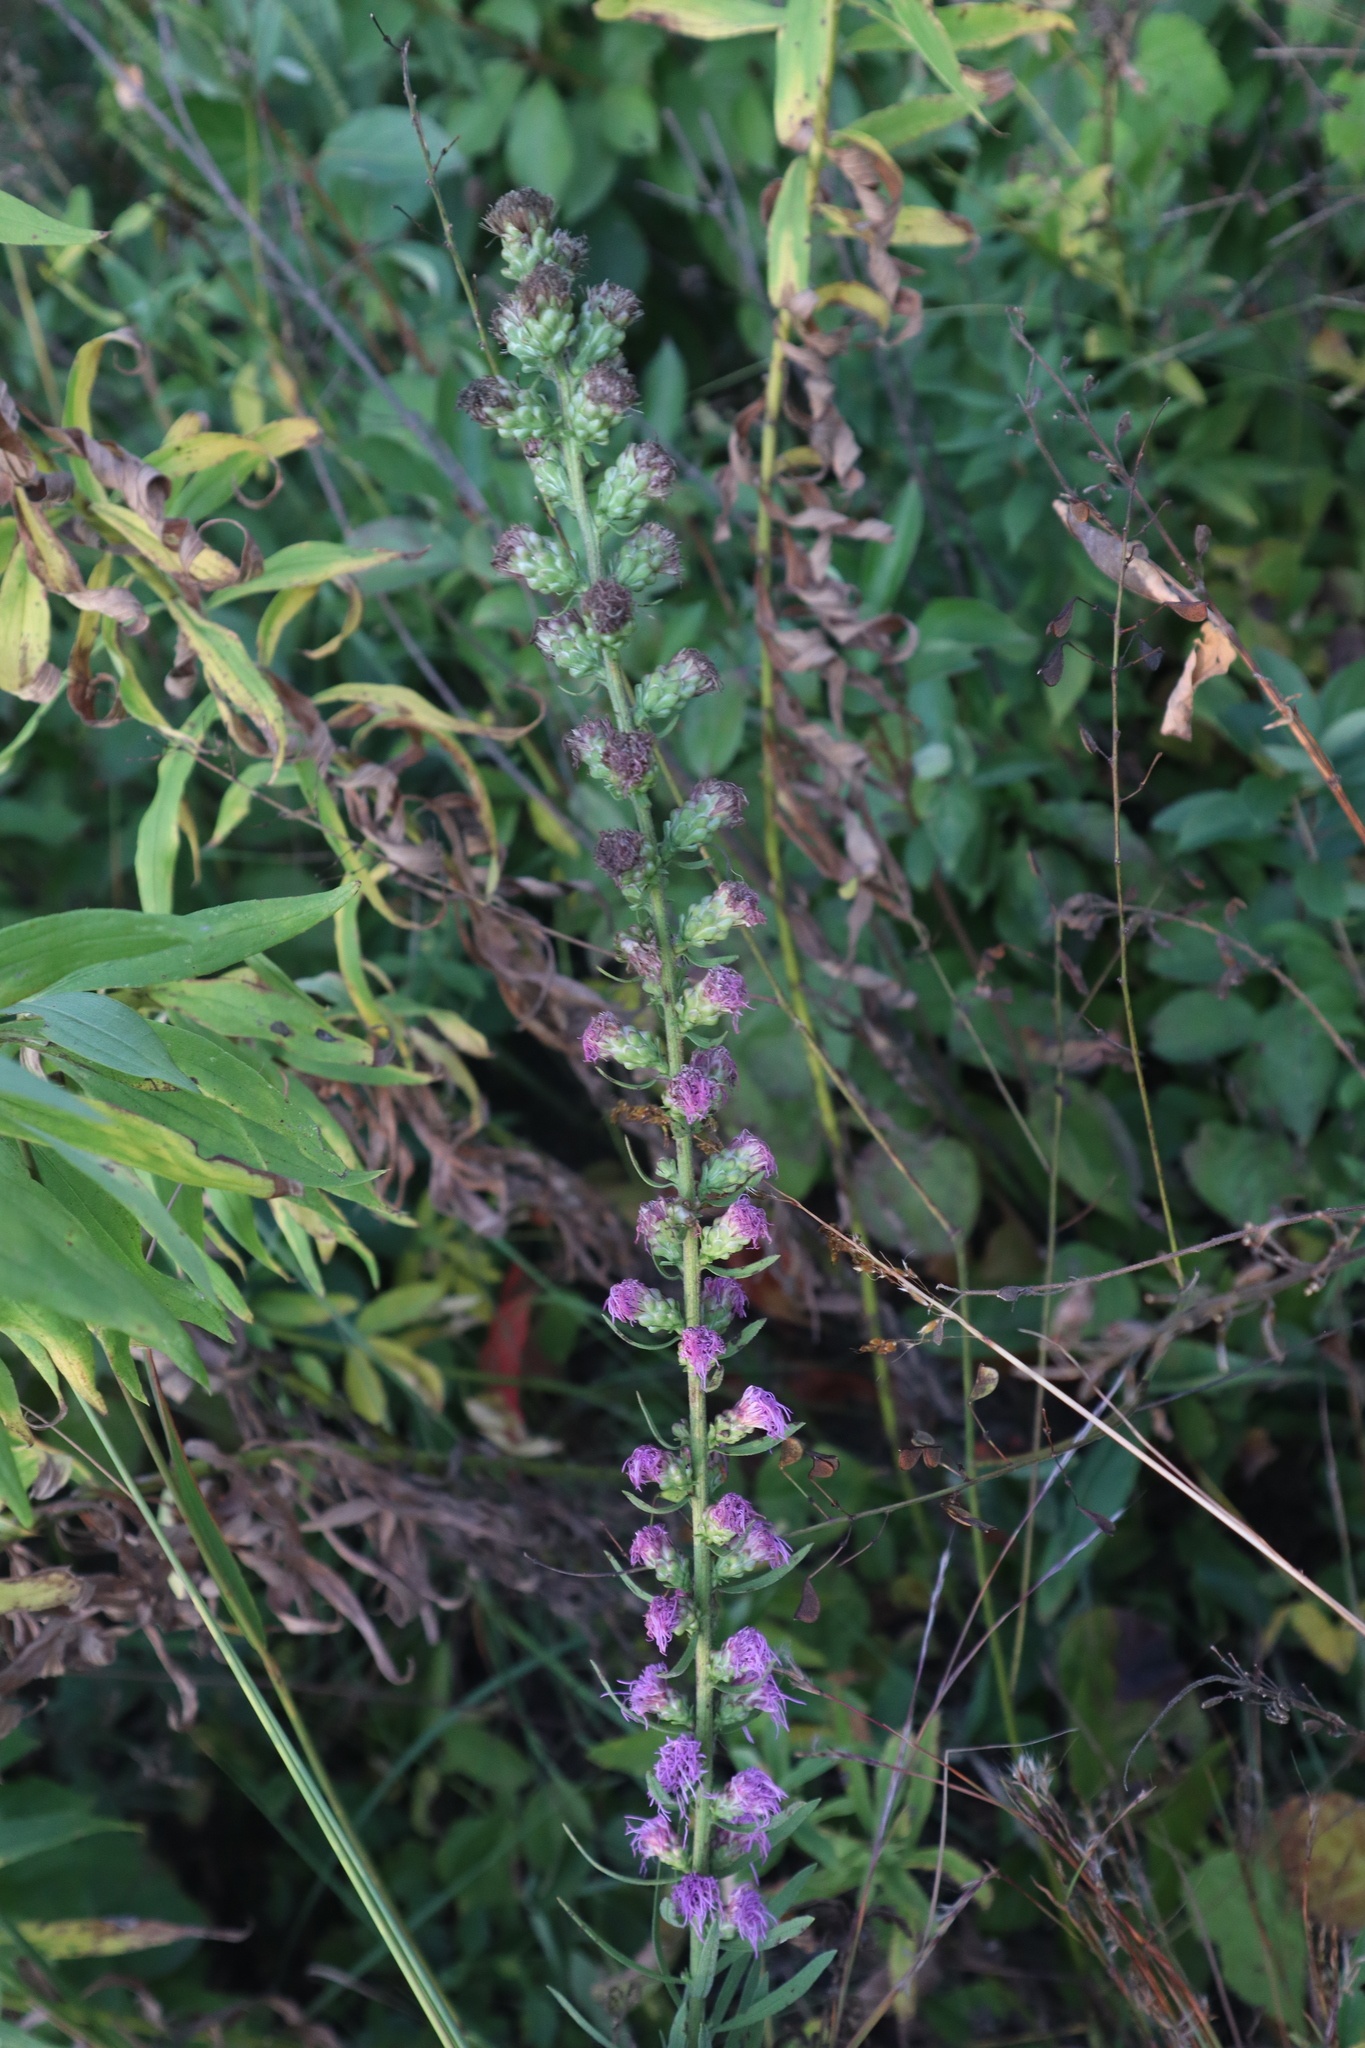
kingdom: Plantae
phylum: Tracheophyta
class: Magnoliopsida
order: Asterales
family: Asteraceae
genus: Liatris
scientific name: Liatris aspera
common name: Lacerate blazing-star
